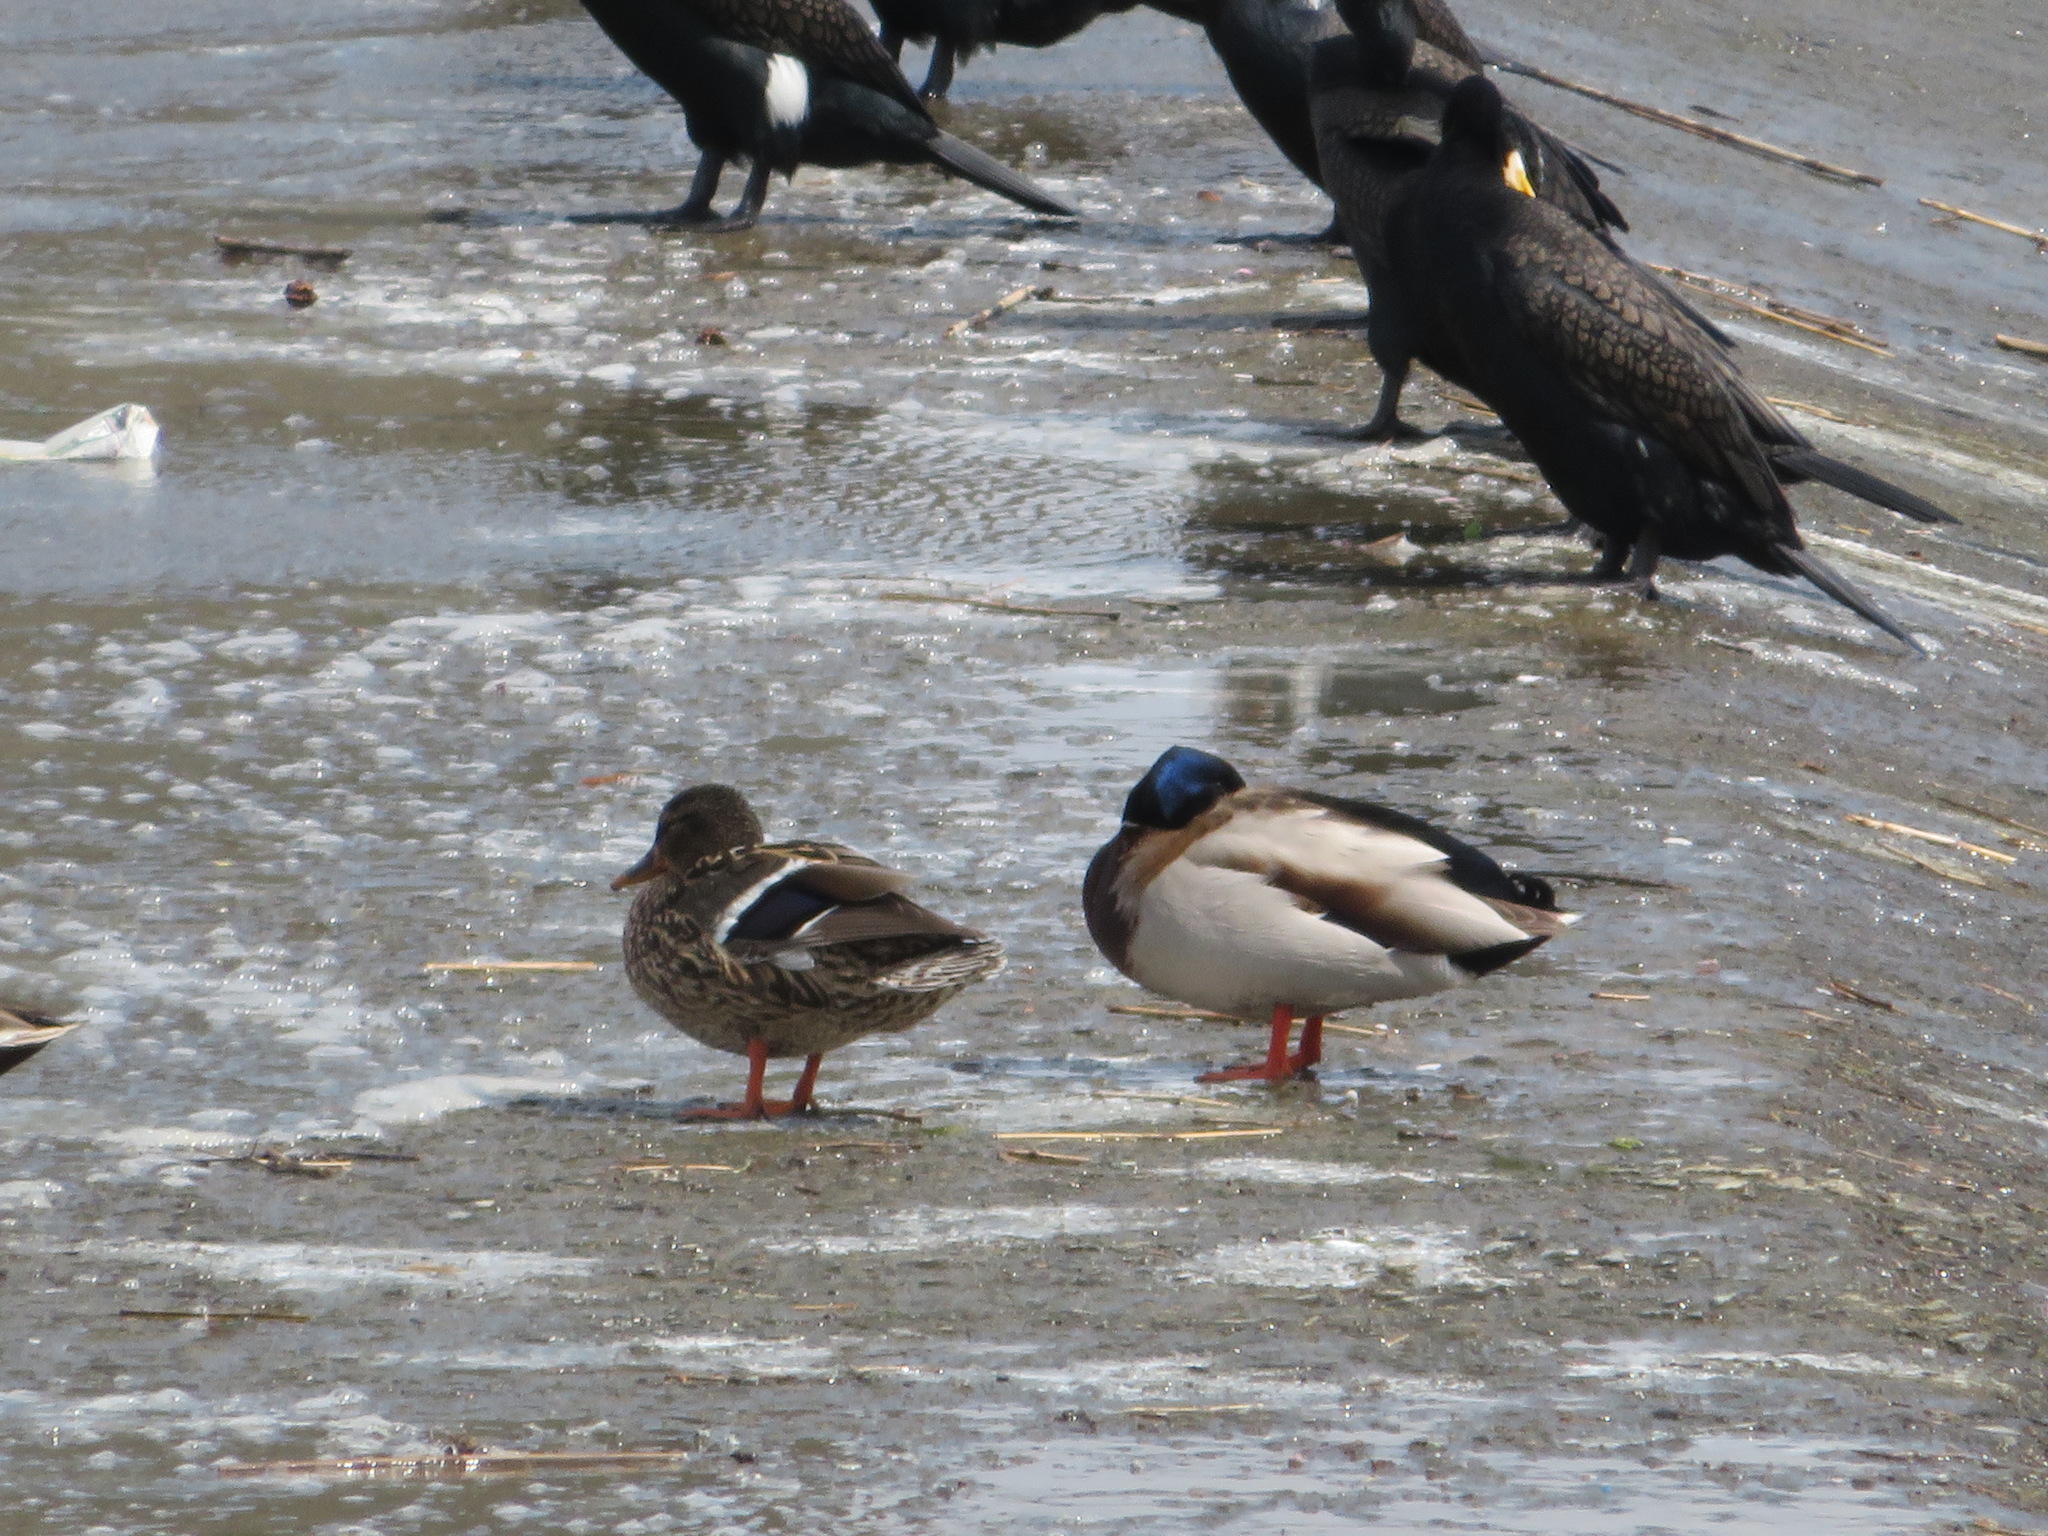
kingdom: Animalia
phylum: Chordata
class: Aves
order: Anseriformes
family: Anatidae
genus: Anas
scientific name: Anas platyrhynchos
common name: Mallard
